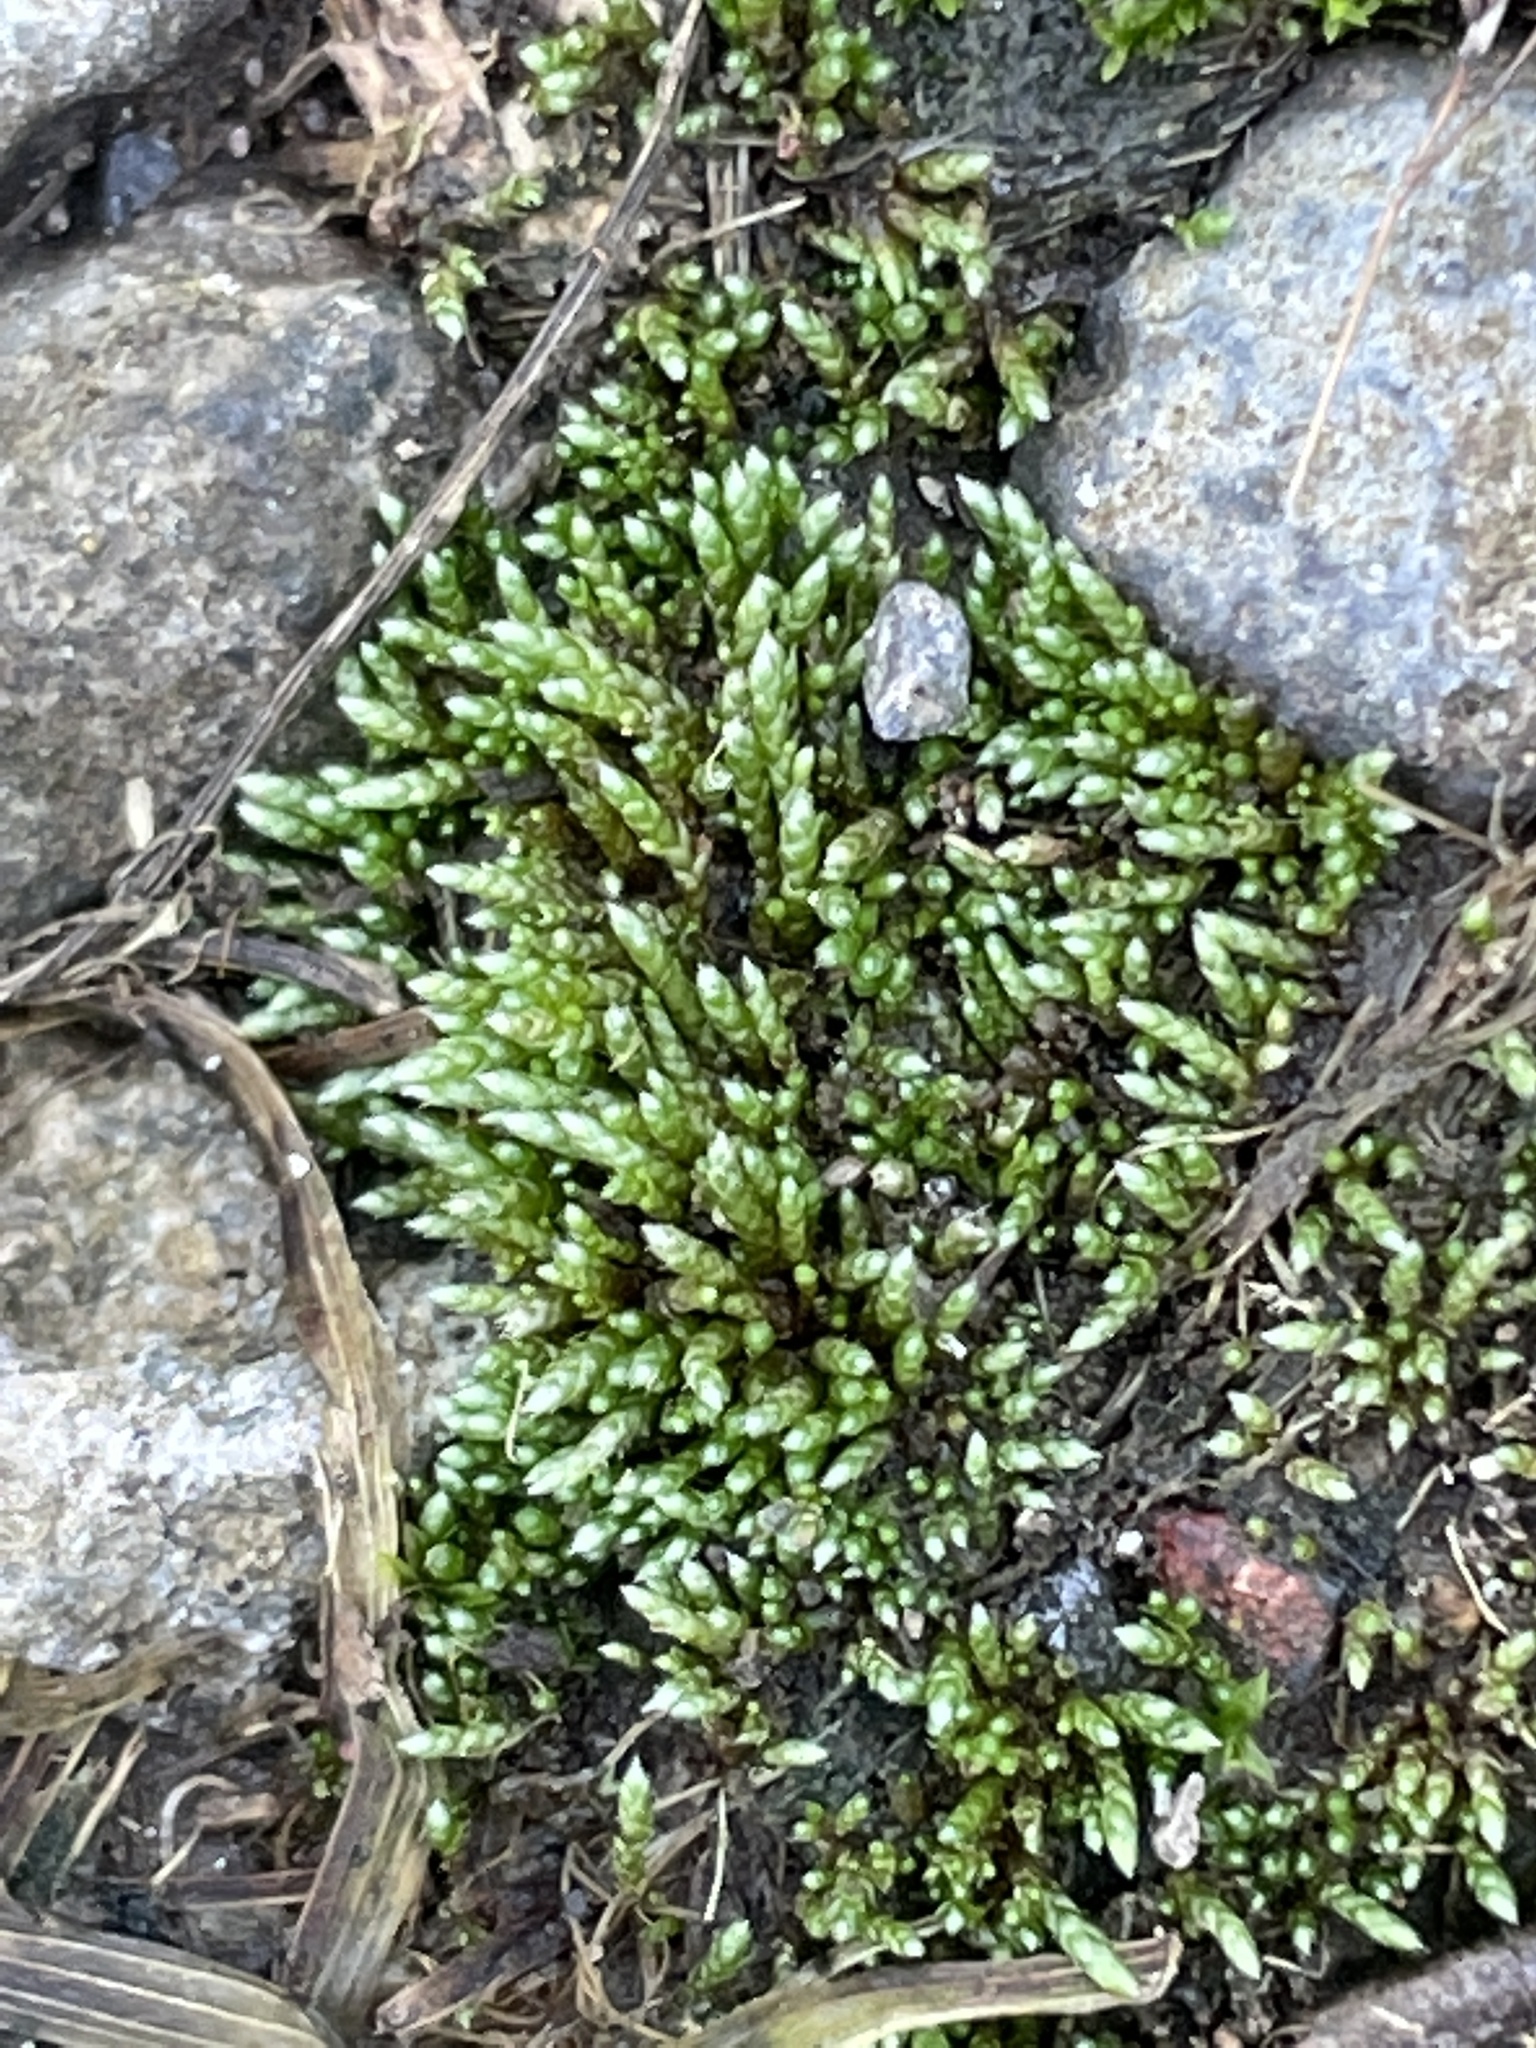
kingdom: Plantae
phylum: Bryophyta
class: Bryopsida
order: Bryales
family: Bryaceae
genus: Bryum
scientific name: Bryum argenteum
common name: Silver-moss
